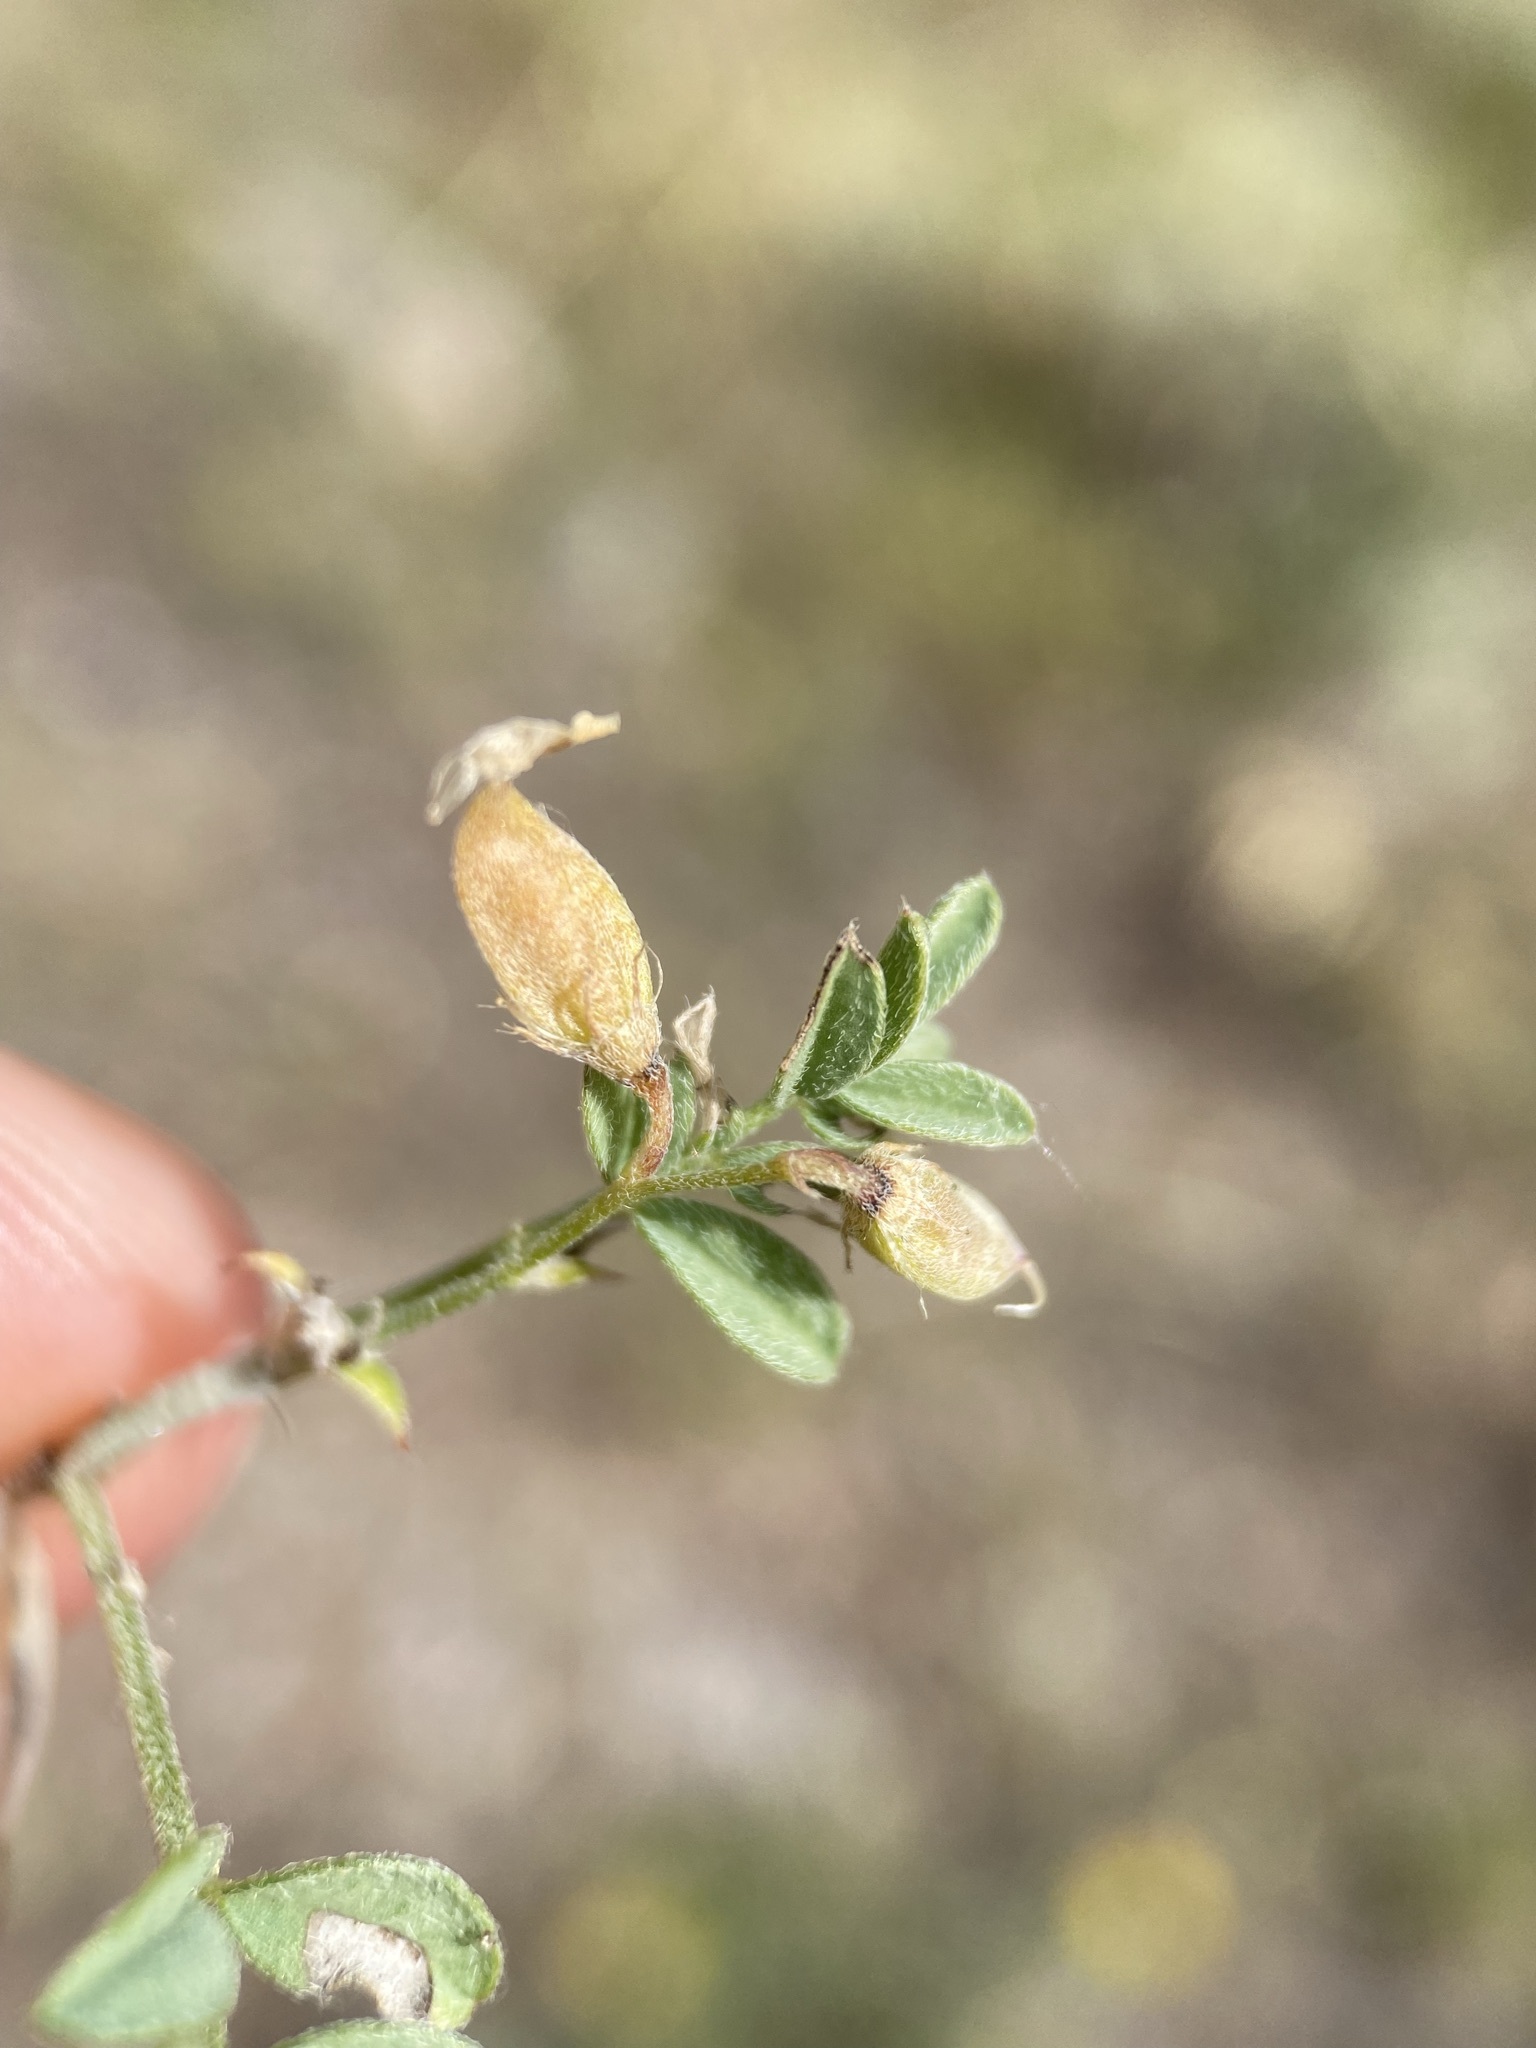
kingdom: Plantae
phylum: Tracheophyta
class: Magnoliopsida
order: Fabales
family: Fabaceae
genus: Astragalus
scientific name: Astragalus vexilliflexus
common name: Bent-flowered milk-vetch
